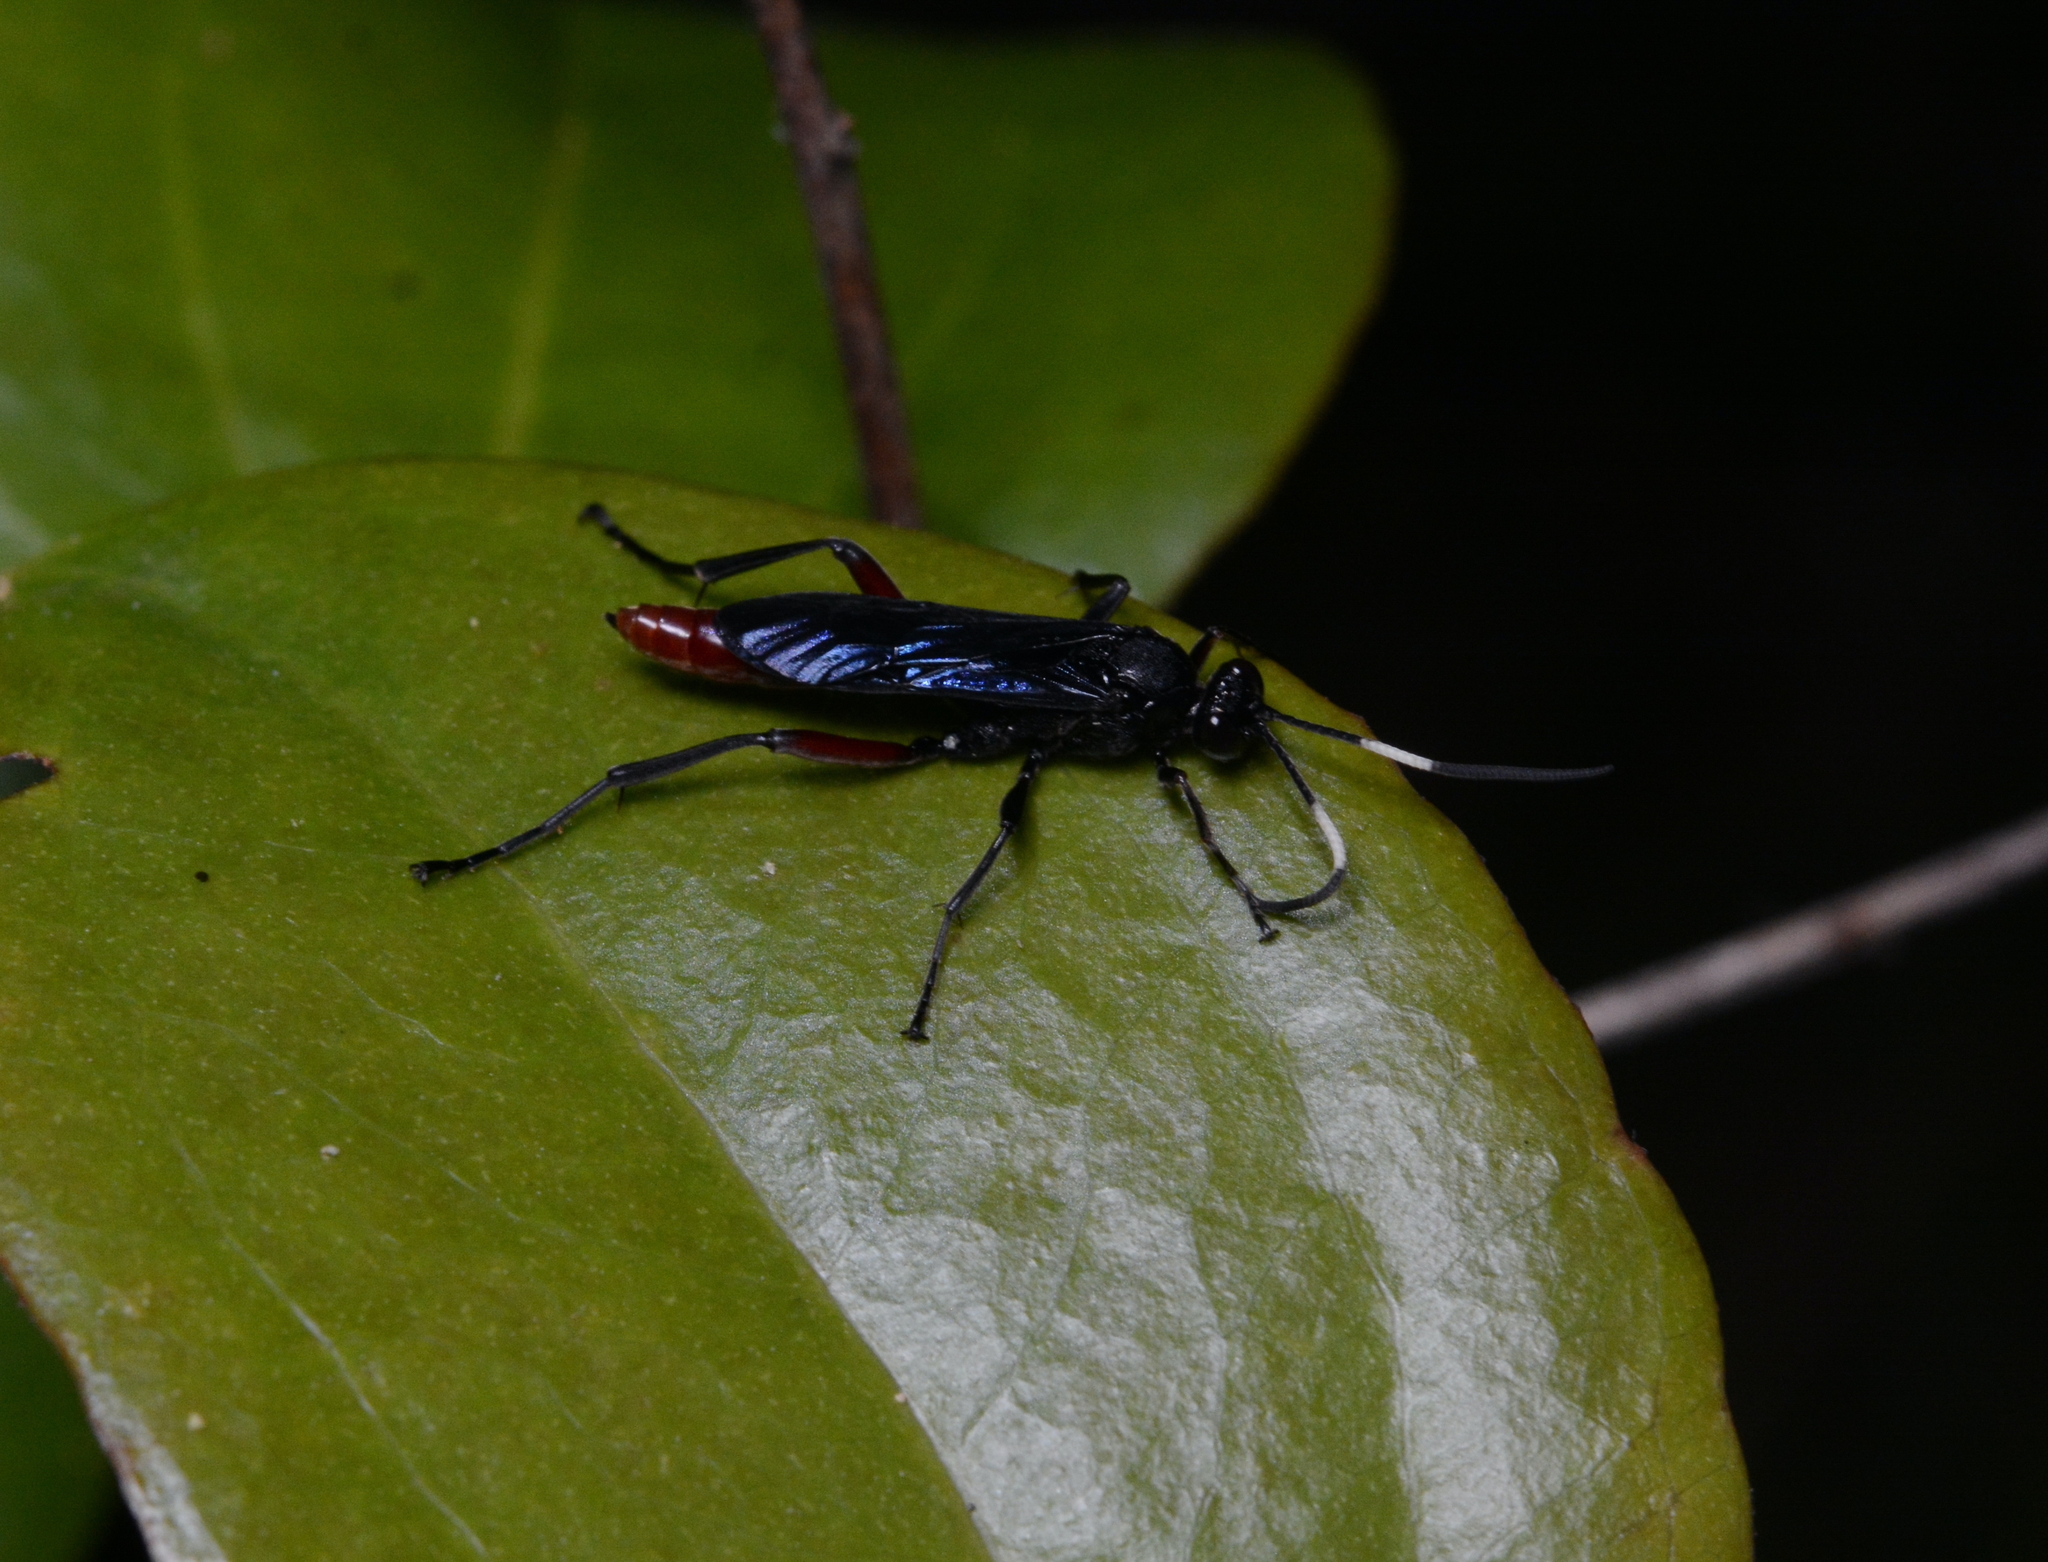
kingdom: Animalia
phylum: Arthropoda
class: Insecta
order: Hymenoptera
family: Ichneumonidae
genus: Limonethe
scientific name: Limonethe maurator
